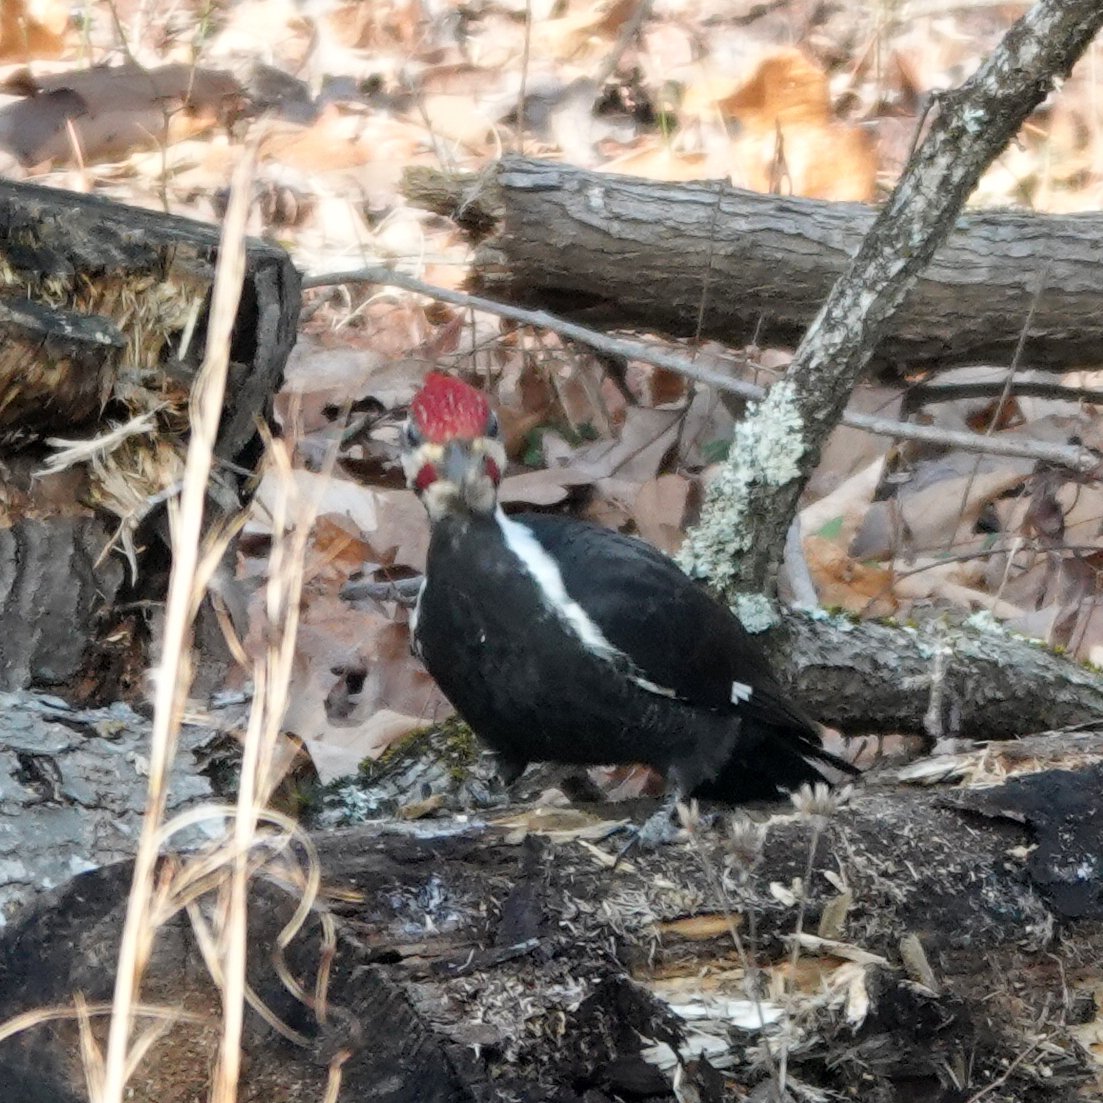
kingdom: Animalia
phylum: Chordata
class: Aves
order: Piciformes
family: Picidae
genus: Dryocopus
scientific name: Dryocopus pileatus
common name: Pileated woodpecker
